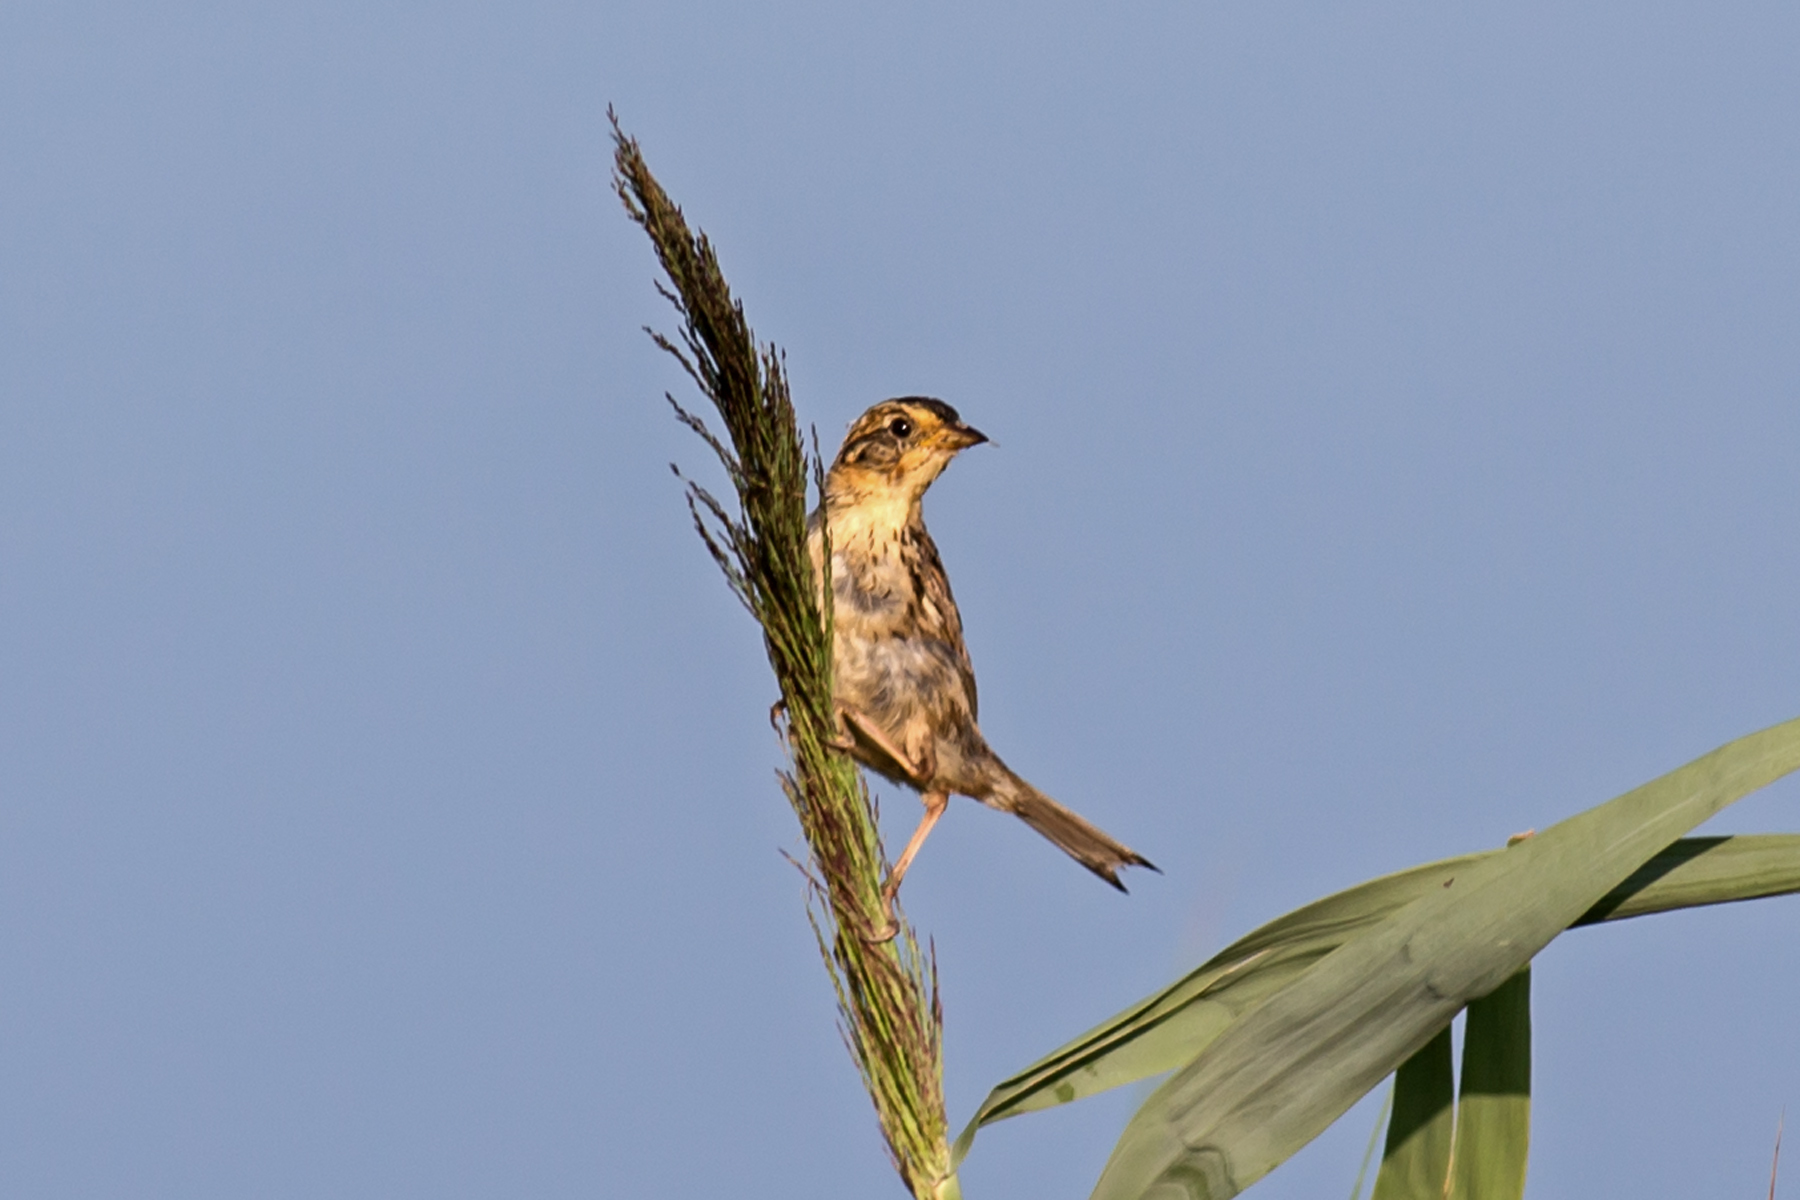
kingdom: Animalia
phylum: Chordata
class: Aves
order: Passeriformes
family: Passerellidae
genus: Ammospiza
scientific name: Ammospiza caudacuta
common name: Saltmarsh sparrow
